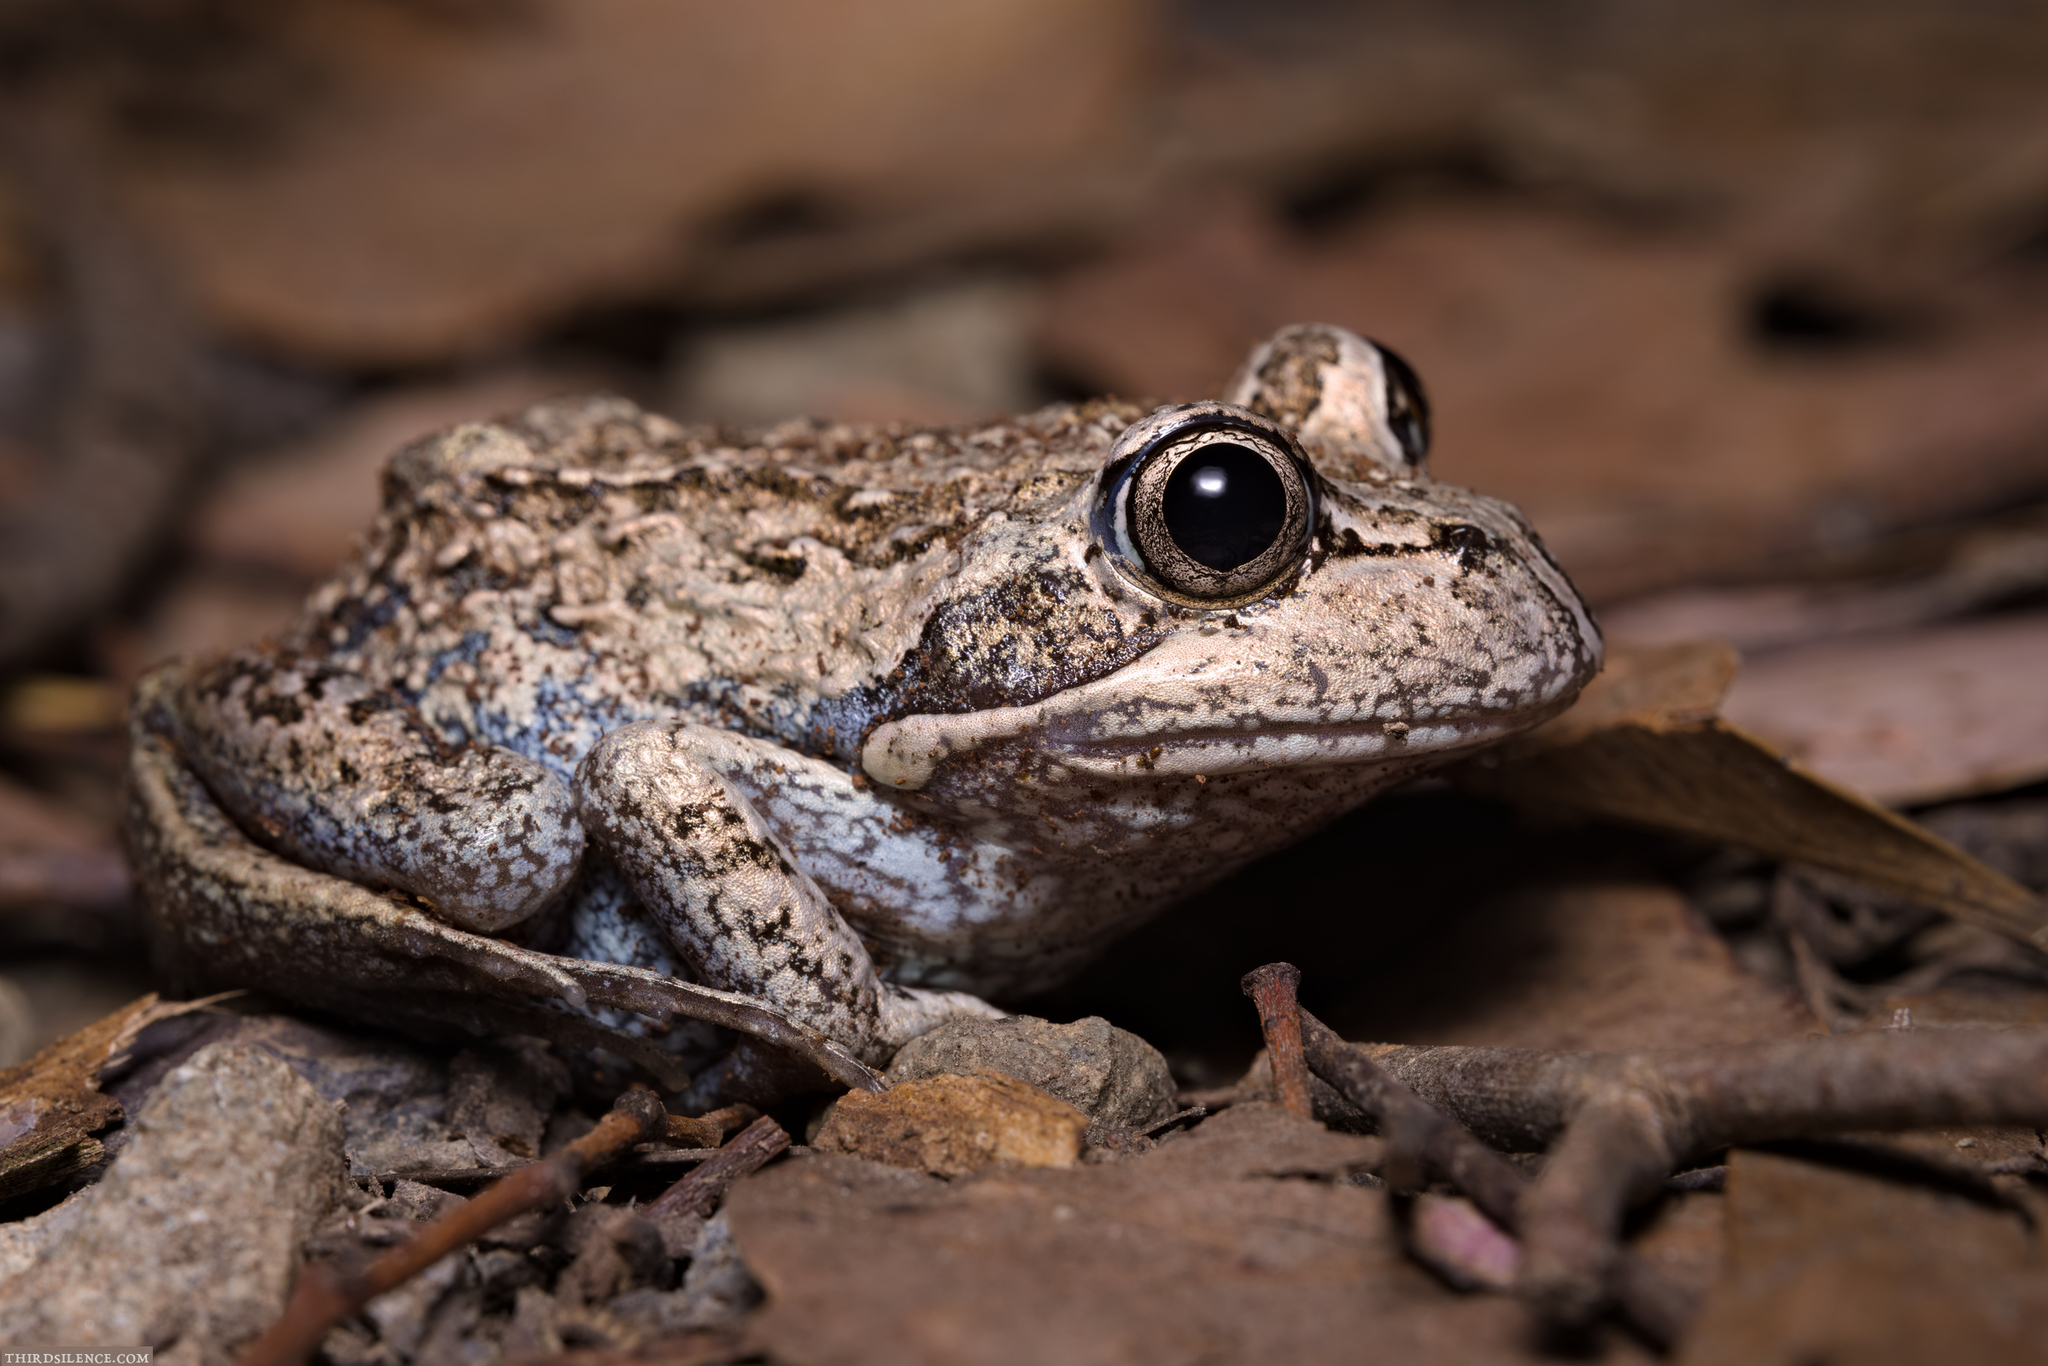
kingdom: Animalia
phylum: Chordata
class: Amphibia
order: Anura
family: Limnodynastidae
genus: Limnodynastes
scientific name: Limnodynastes dumerilii
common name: Banjo frog
